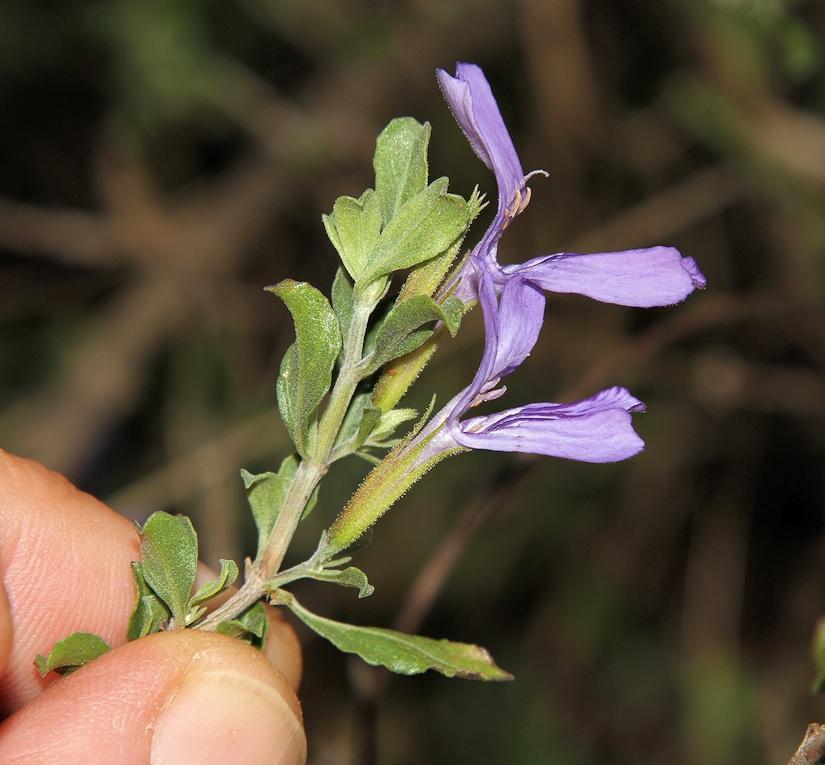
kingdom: Plantae
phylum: Tracheophyta
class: Magnoliopsida
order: Lamiales
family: Acanthaceae
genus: Dyschoriste
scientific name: Dyschoriste hildebrandtii
